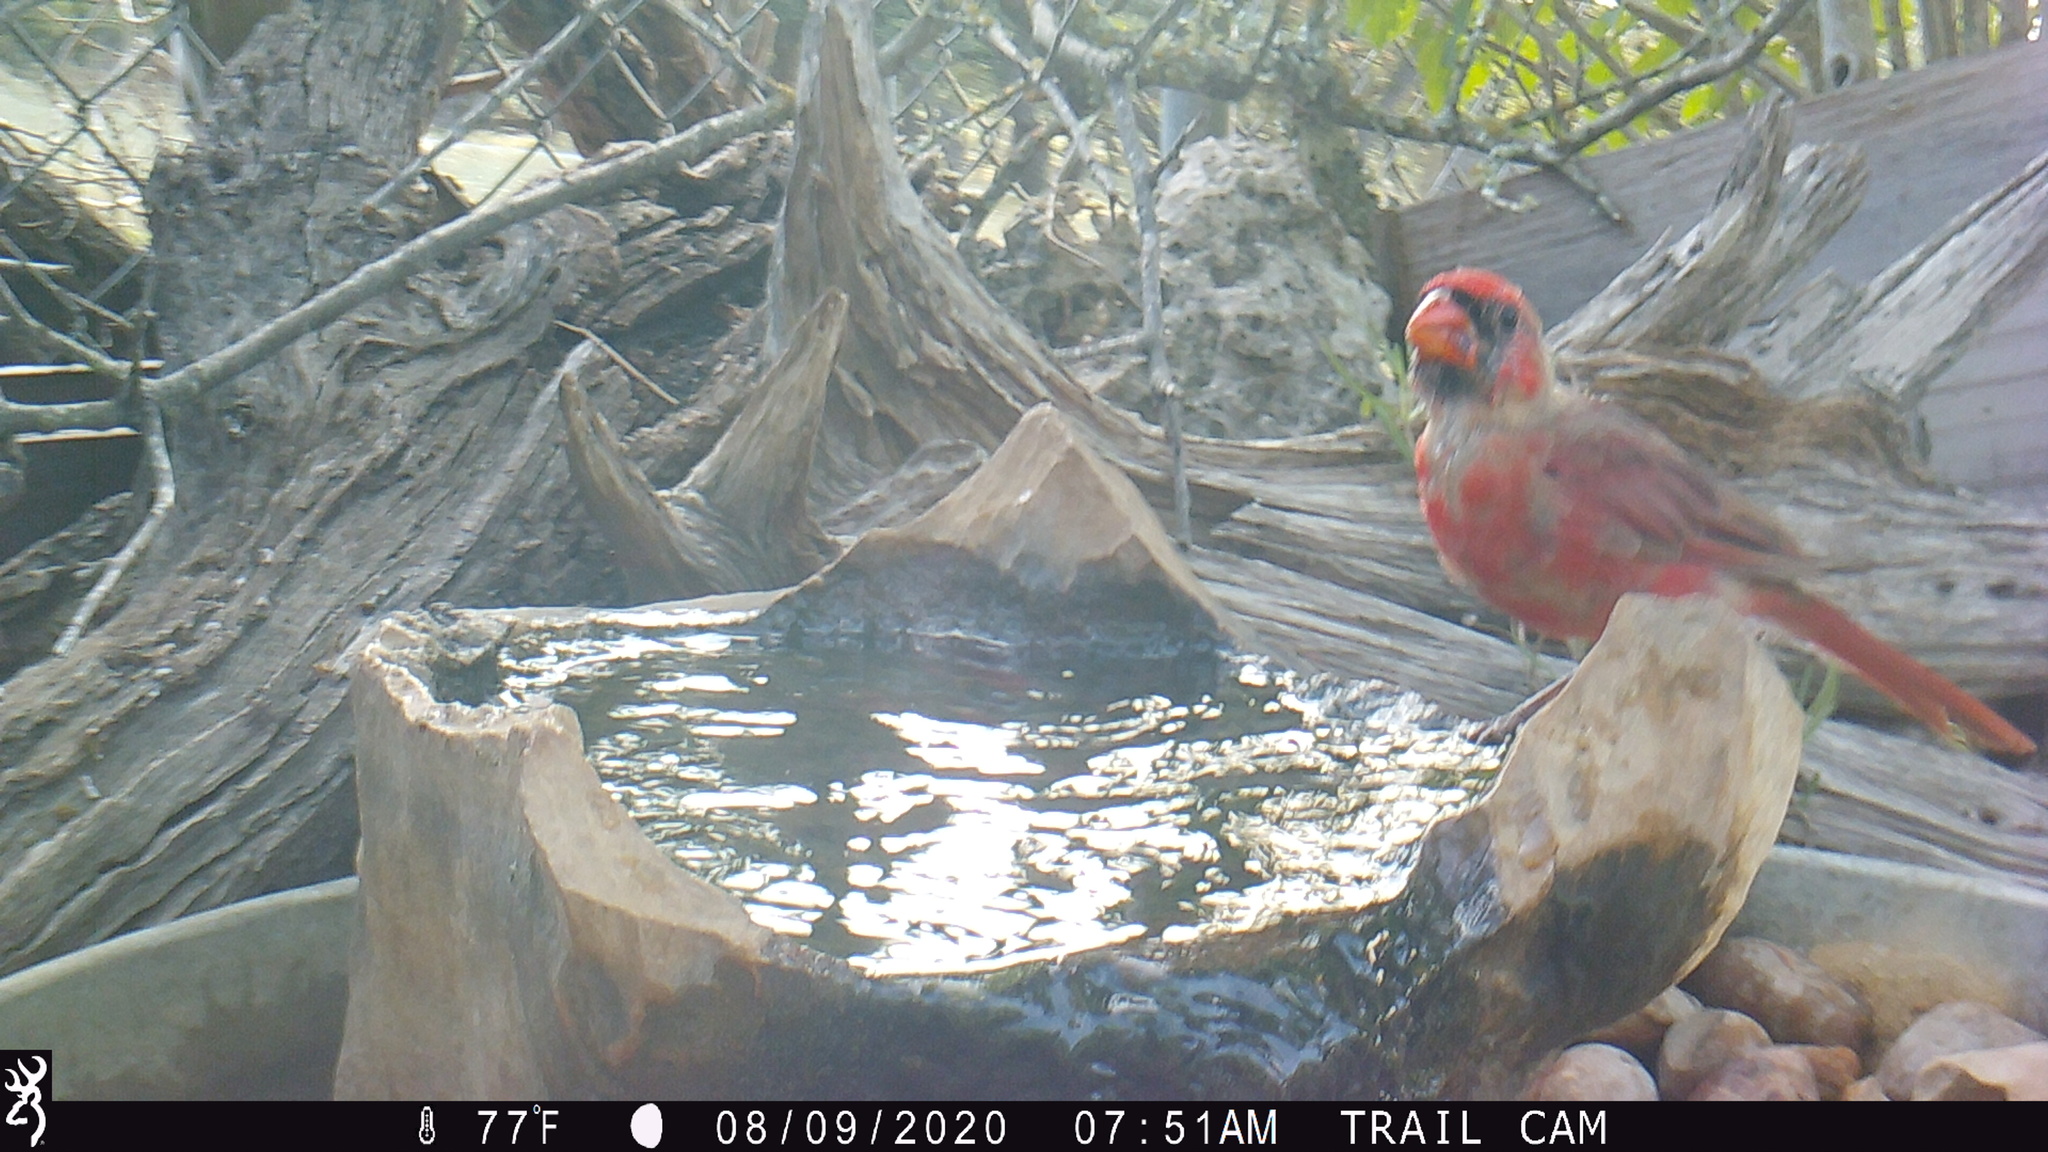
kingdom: Animalia
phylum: Chordata
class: Aves
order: Passeriformes
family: Cardinalidae
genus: Cardinalis
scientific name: Cardinalis cardinalis
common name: Northern cardinal
